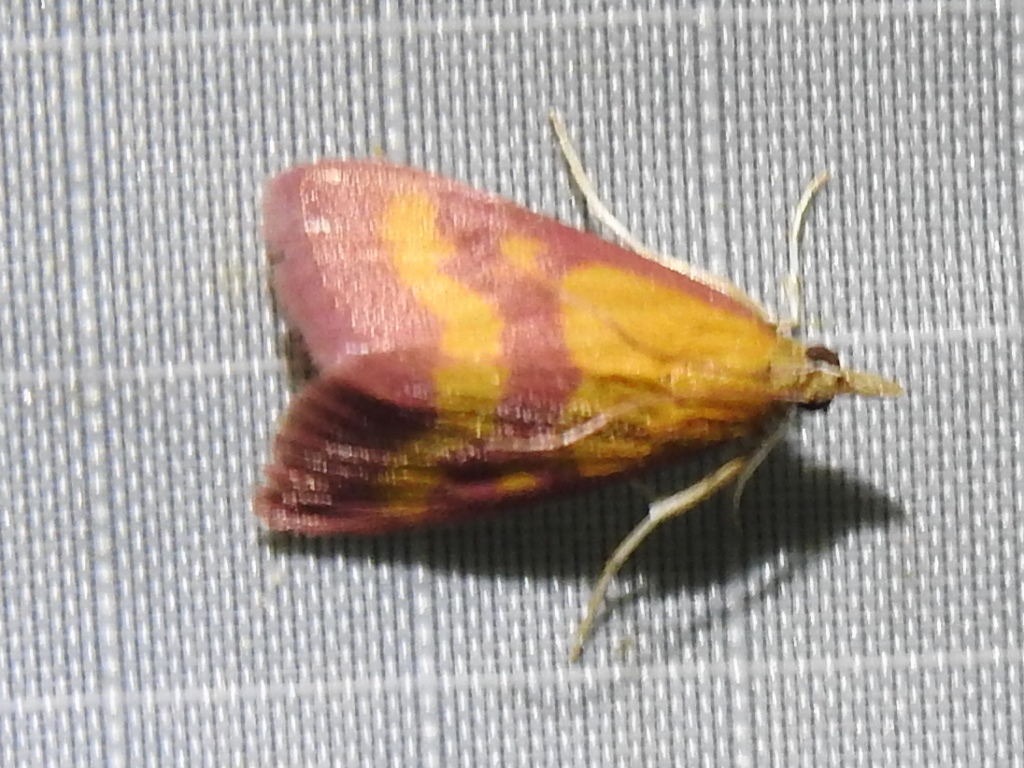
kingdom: Animalia
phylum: Arthropoda
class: Insecta
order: Lepidoptera
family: Crambidae
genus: Pyrausta
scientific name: Pyrausta laticlavia
